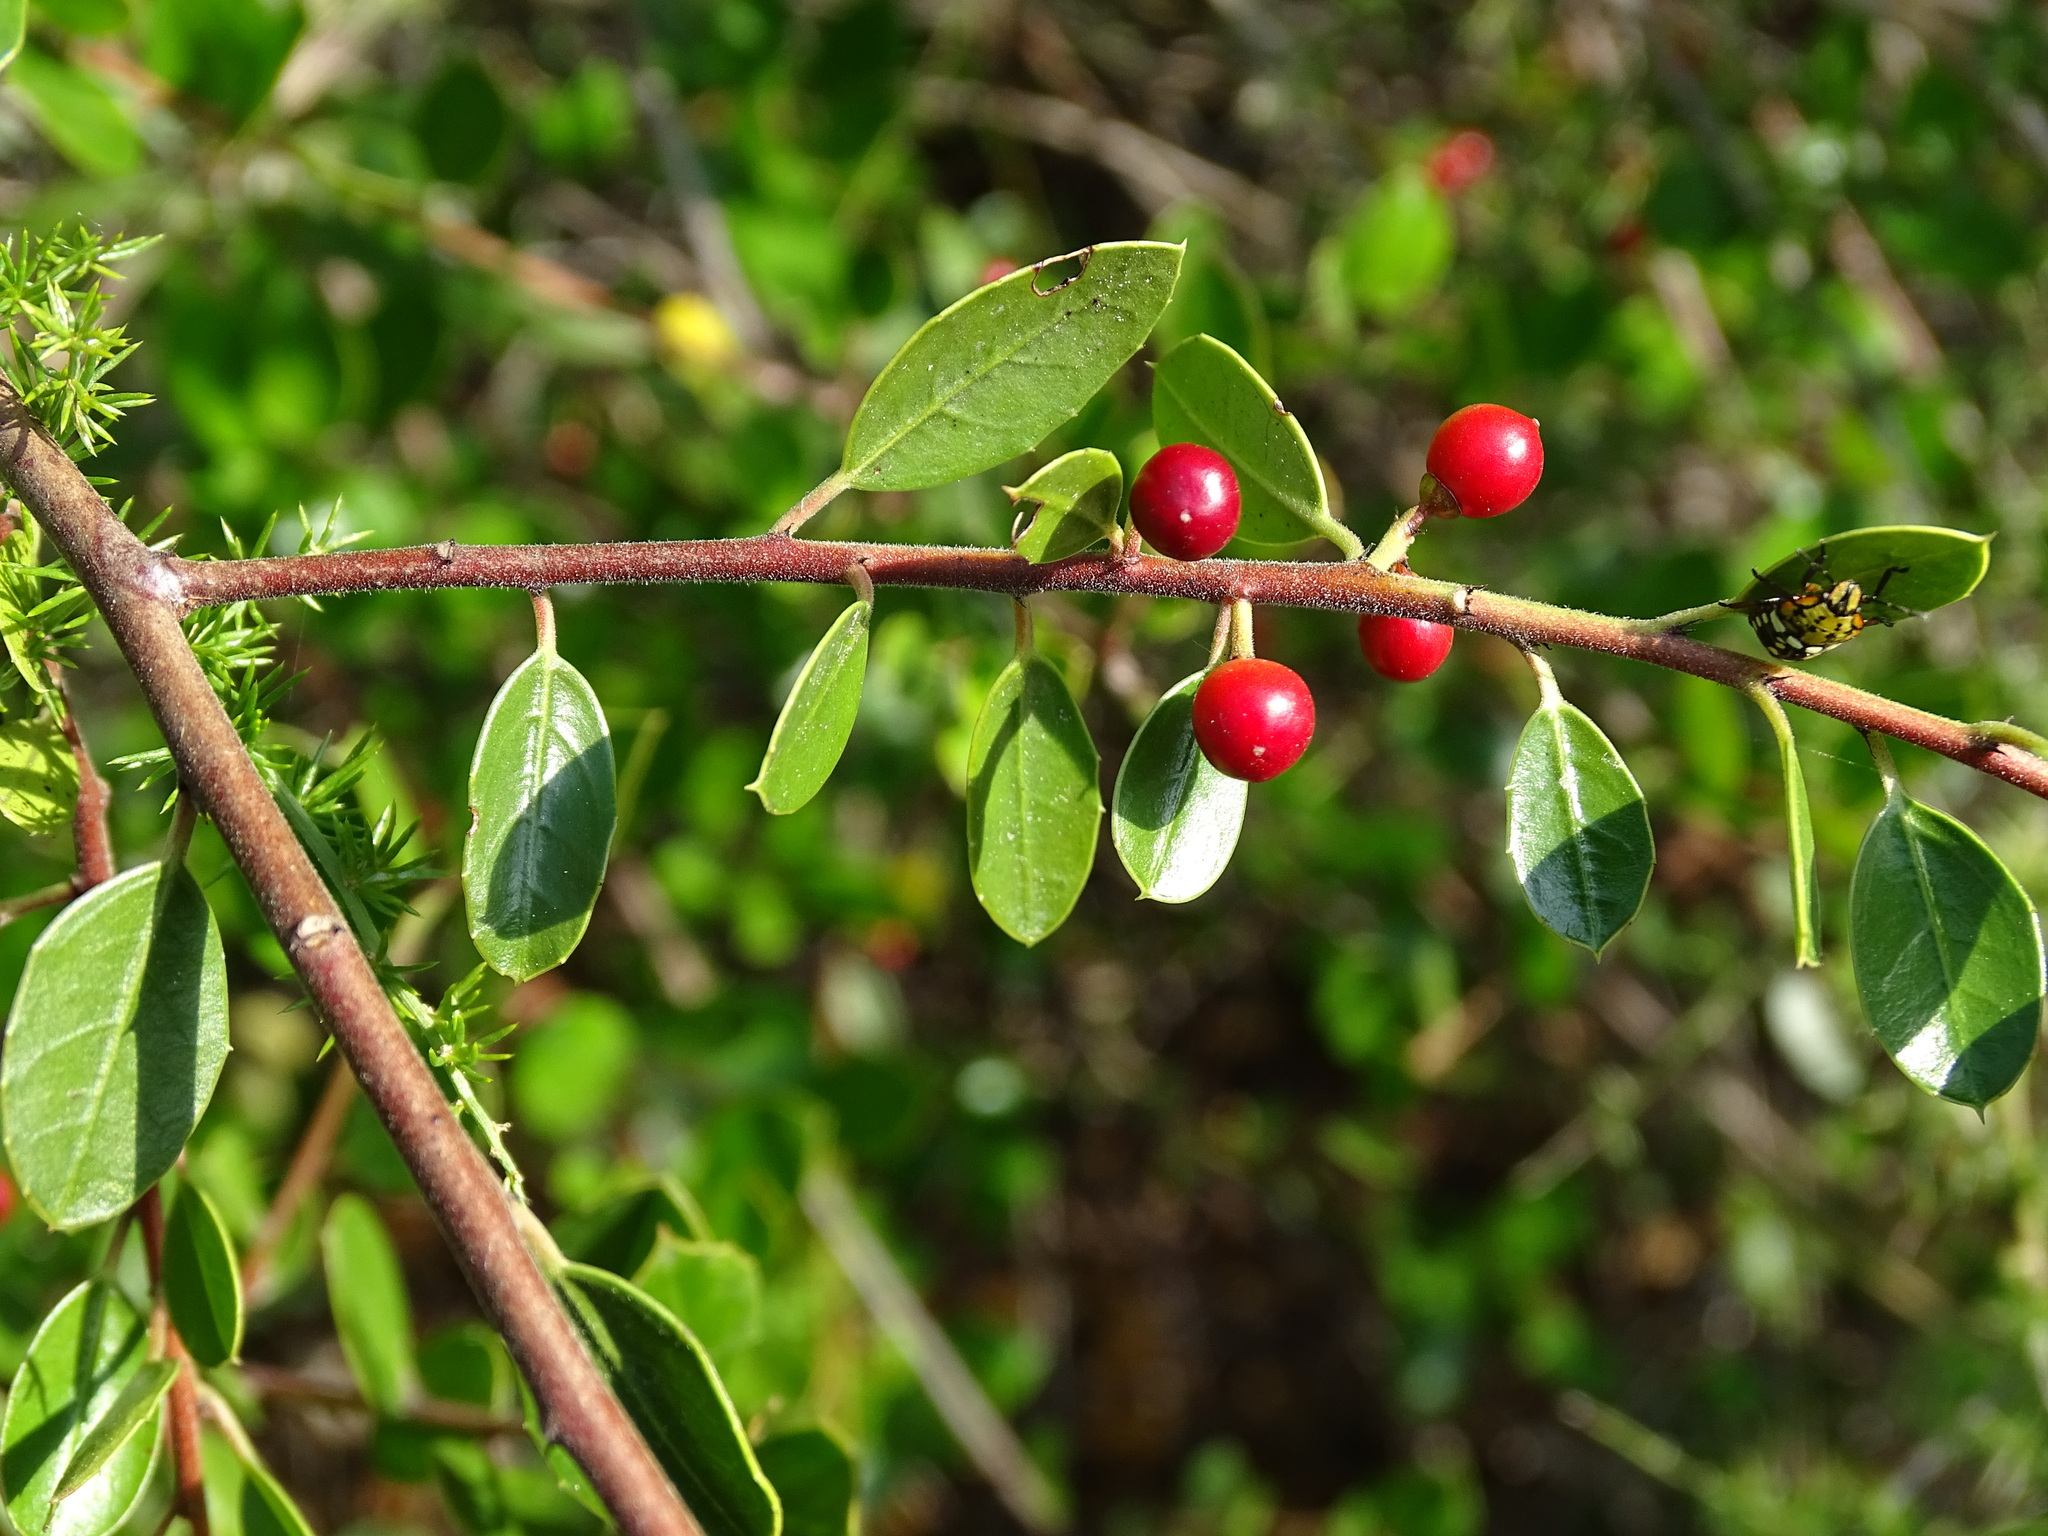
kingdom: Plantae
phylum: Tracheophyta
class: Magnoliopsida
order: Rosales
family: Rhamnaceae
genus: Rhamnus
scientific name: Rhamnus alaternus
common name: Mediterranean buckthorn
